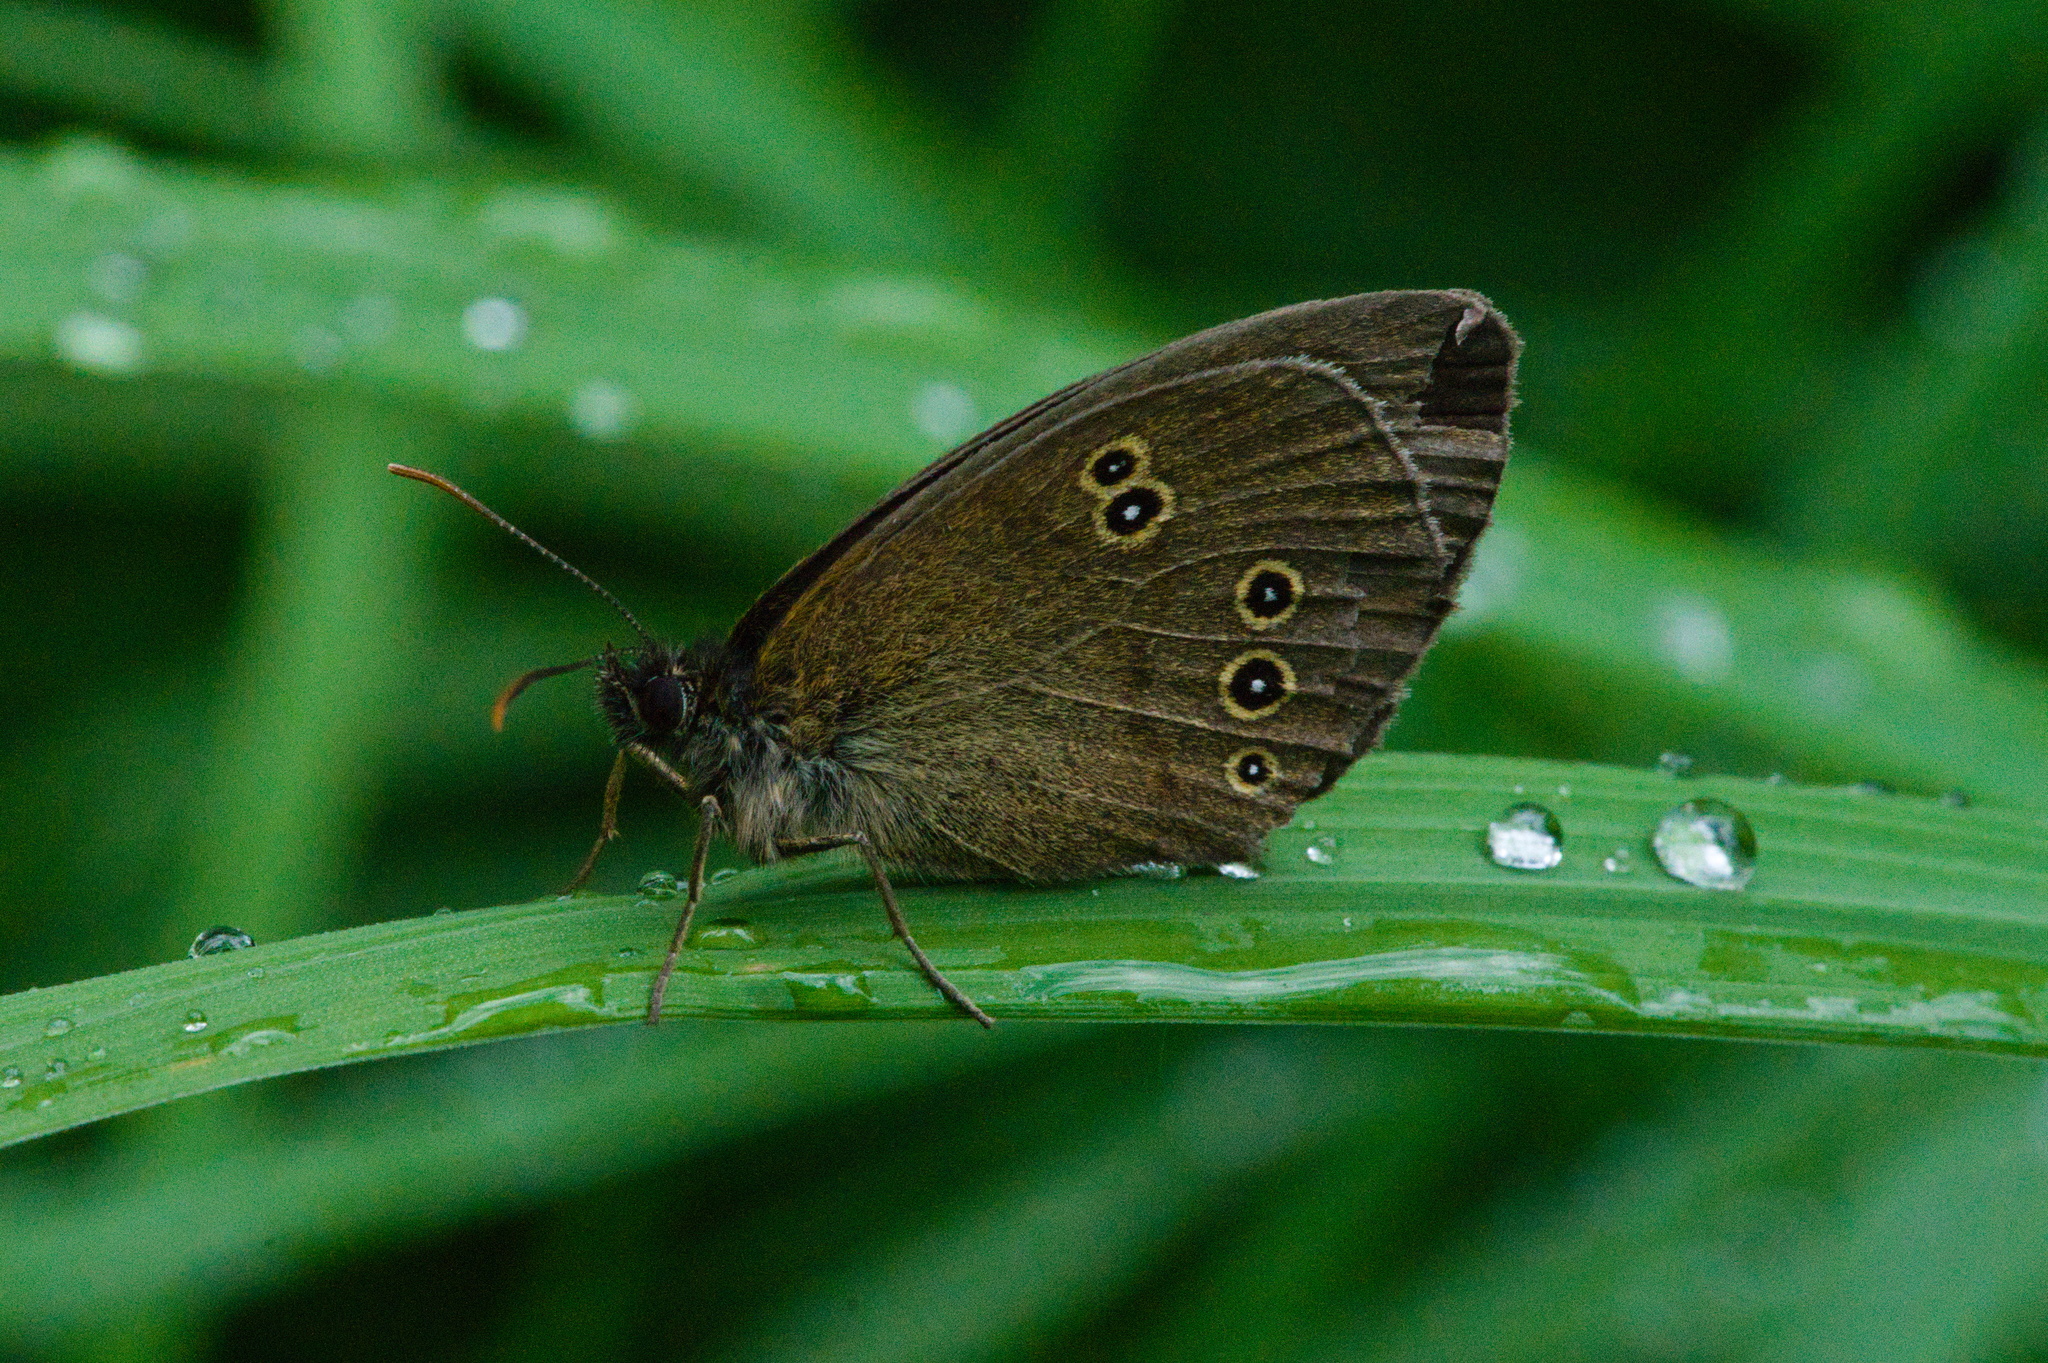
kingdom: Animalia
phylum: Arthropoda
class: Insecta
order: Lepidoptera
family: Nymphalidae
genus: Aphantopus
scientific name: Aphantopus hyperantus
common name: Ringlet
